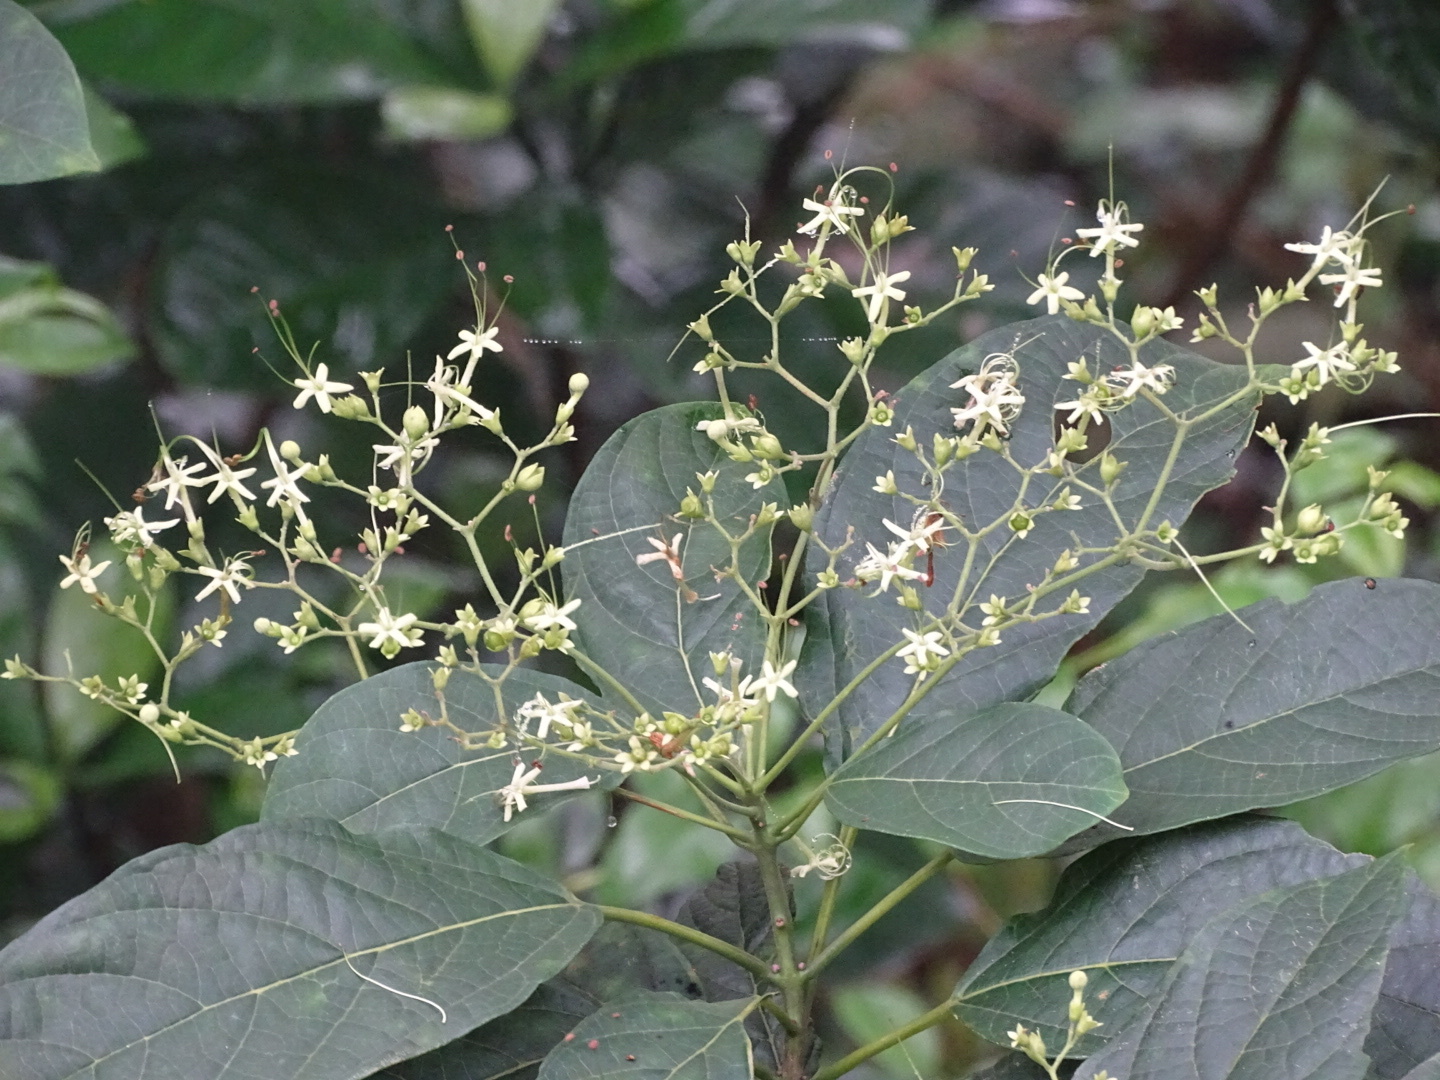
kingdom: Plantae
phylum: Tracheophyta
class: Magnoliopsida
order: Lamiales
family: Lamiaceae
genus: Clerodendrum
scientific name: Clerodendrum cyrtophyllum
